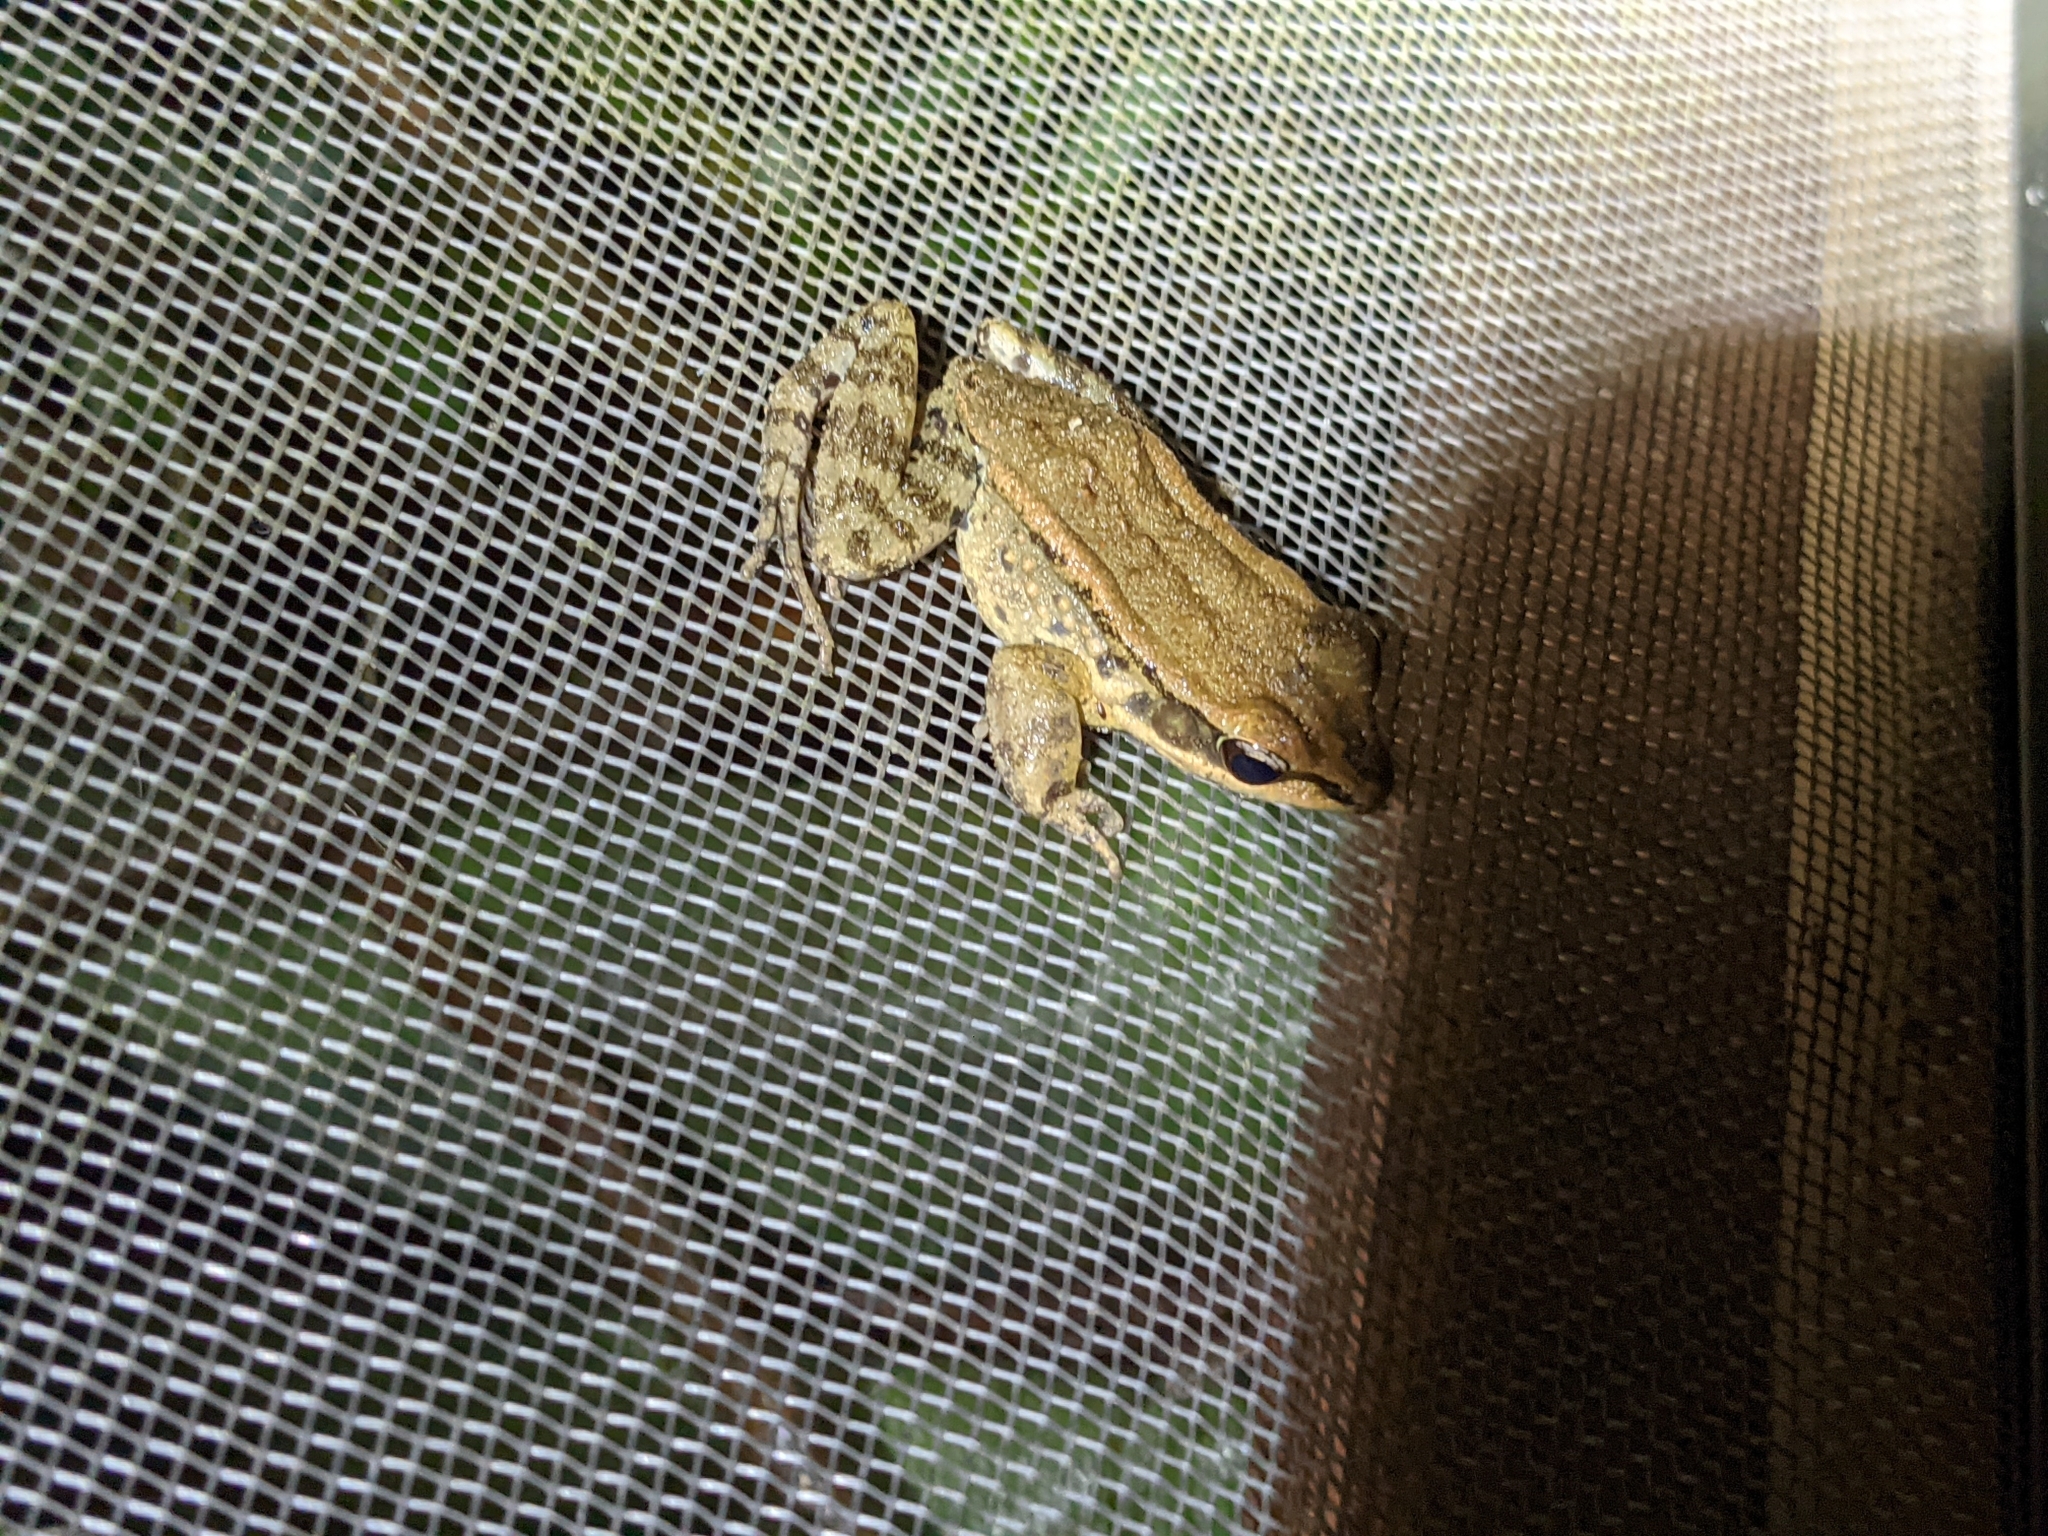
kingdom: Animalia
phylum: Chordata
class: Amphibia
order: Anura
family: Ranidae
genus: Hylarana
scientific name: Hylarana latouchii
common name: Broad-folded frog
